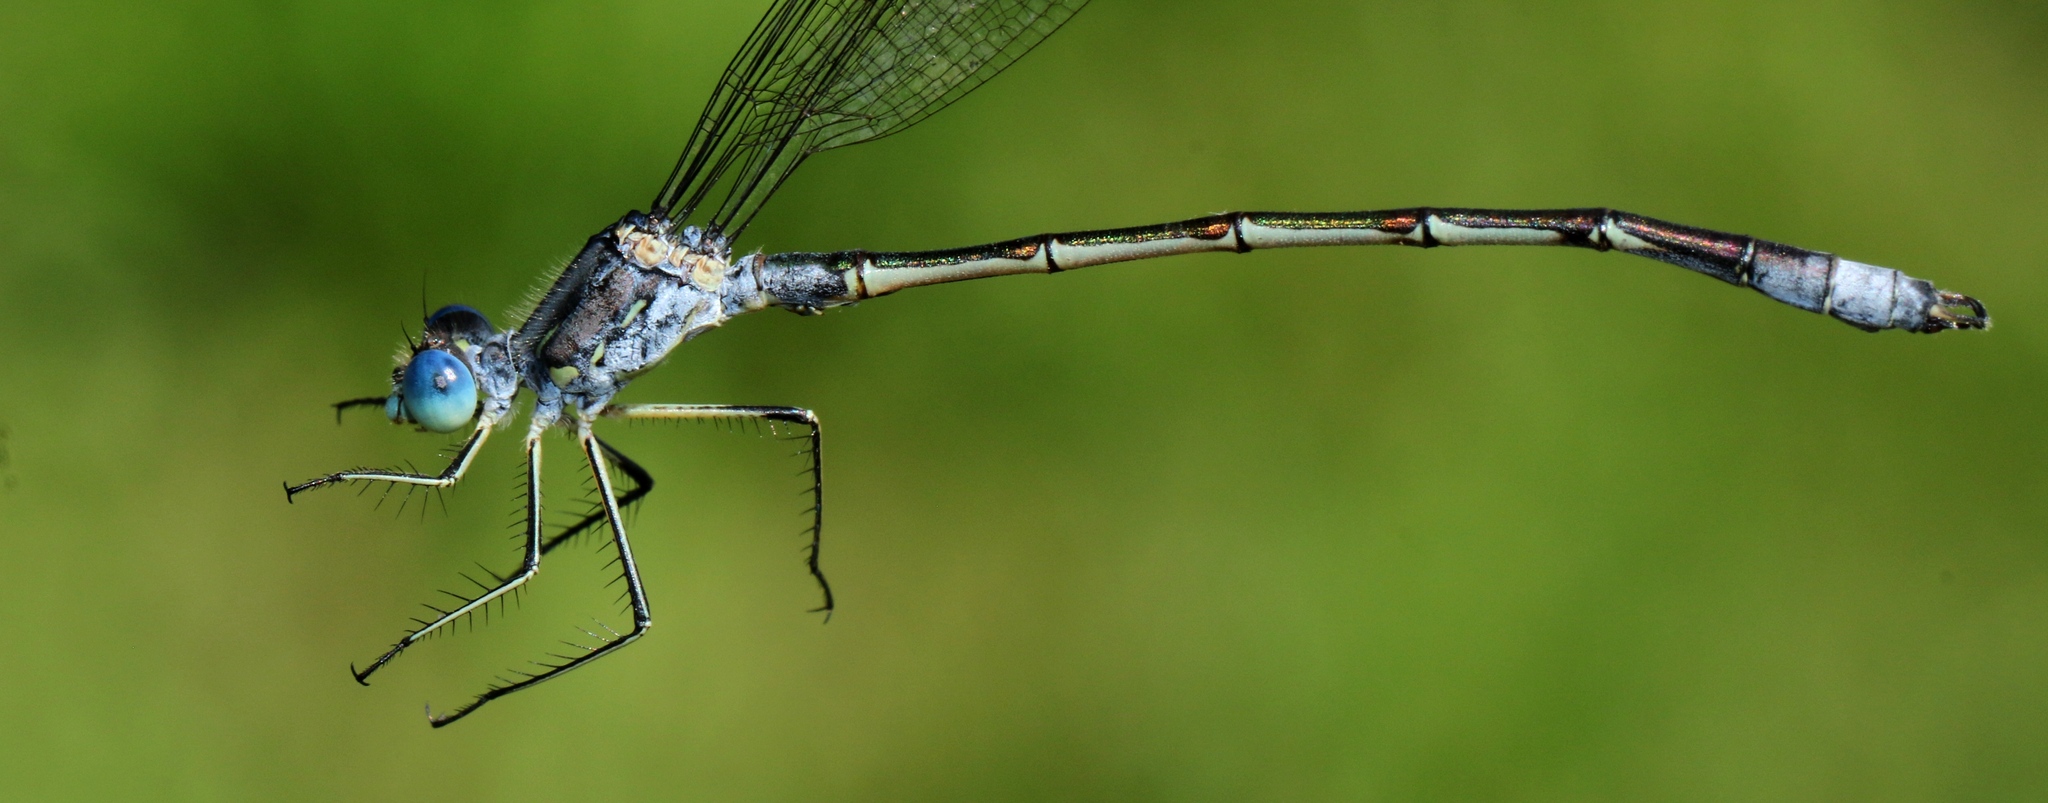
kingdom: Animalia
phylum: Arthropoda
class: Insecta
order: Odonata
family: Lestidae
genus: Lestes
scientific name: Lestes unguiculatus
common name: Lyre-tipped spreadwing
